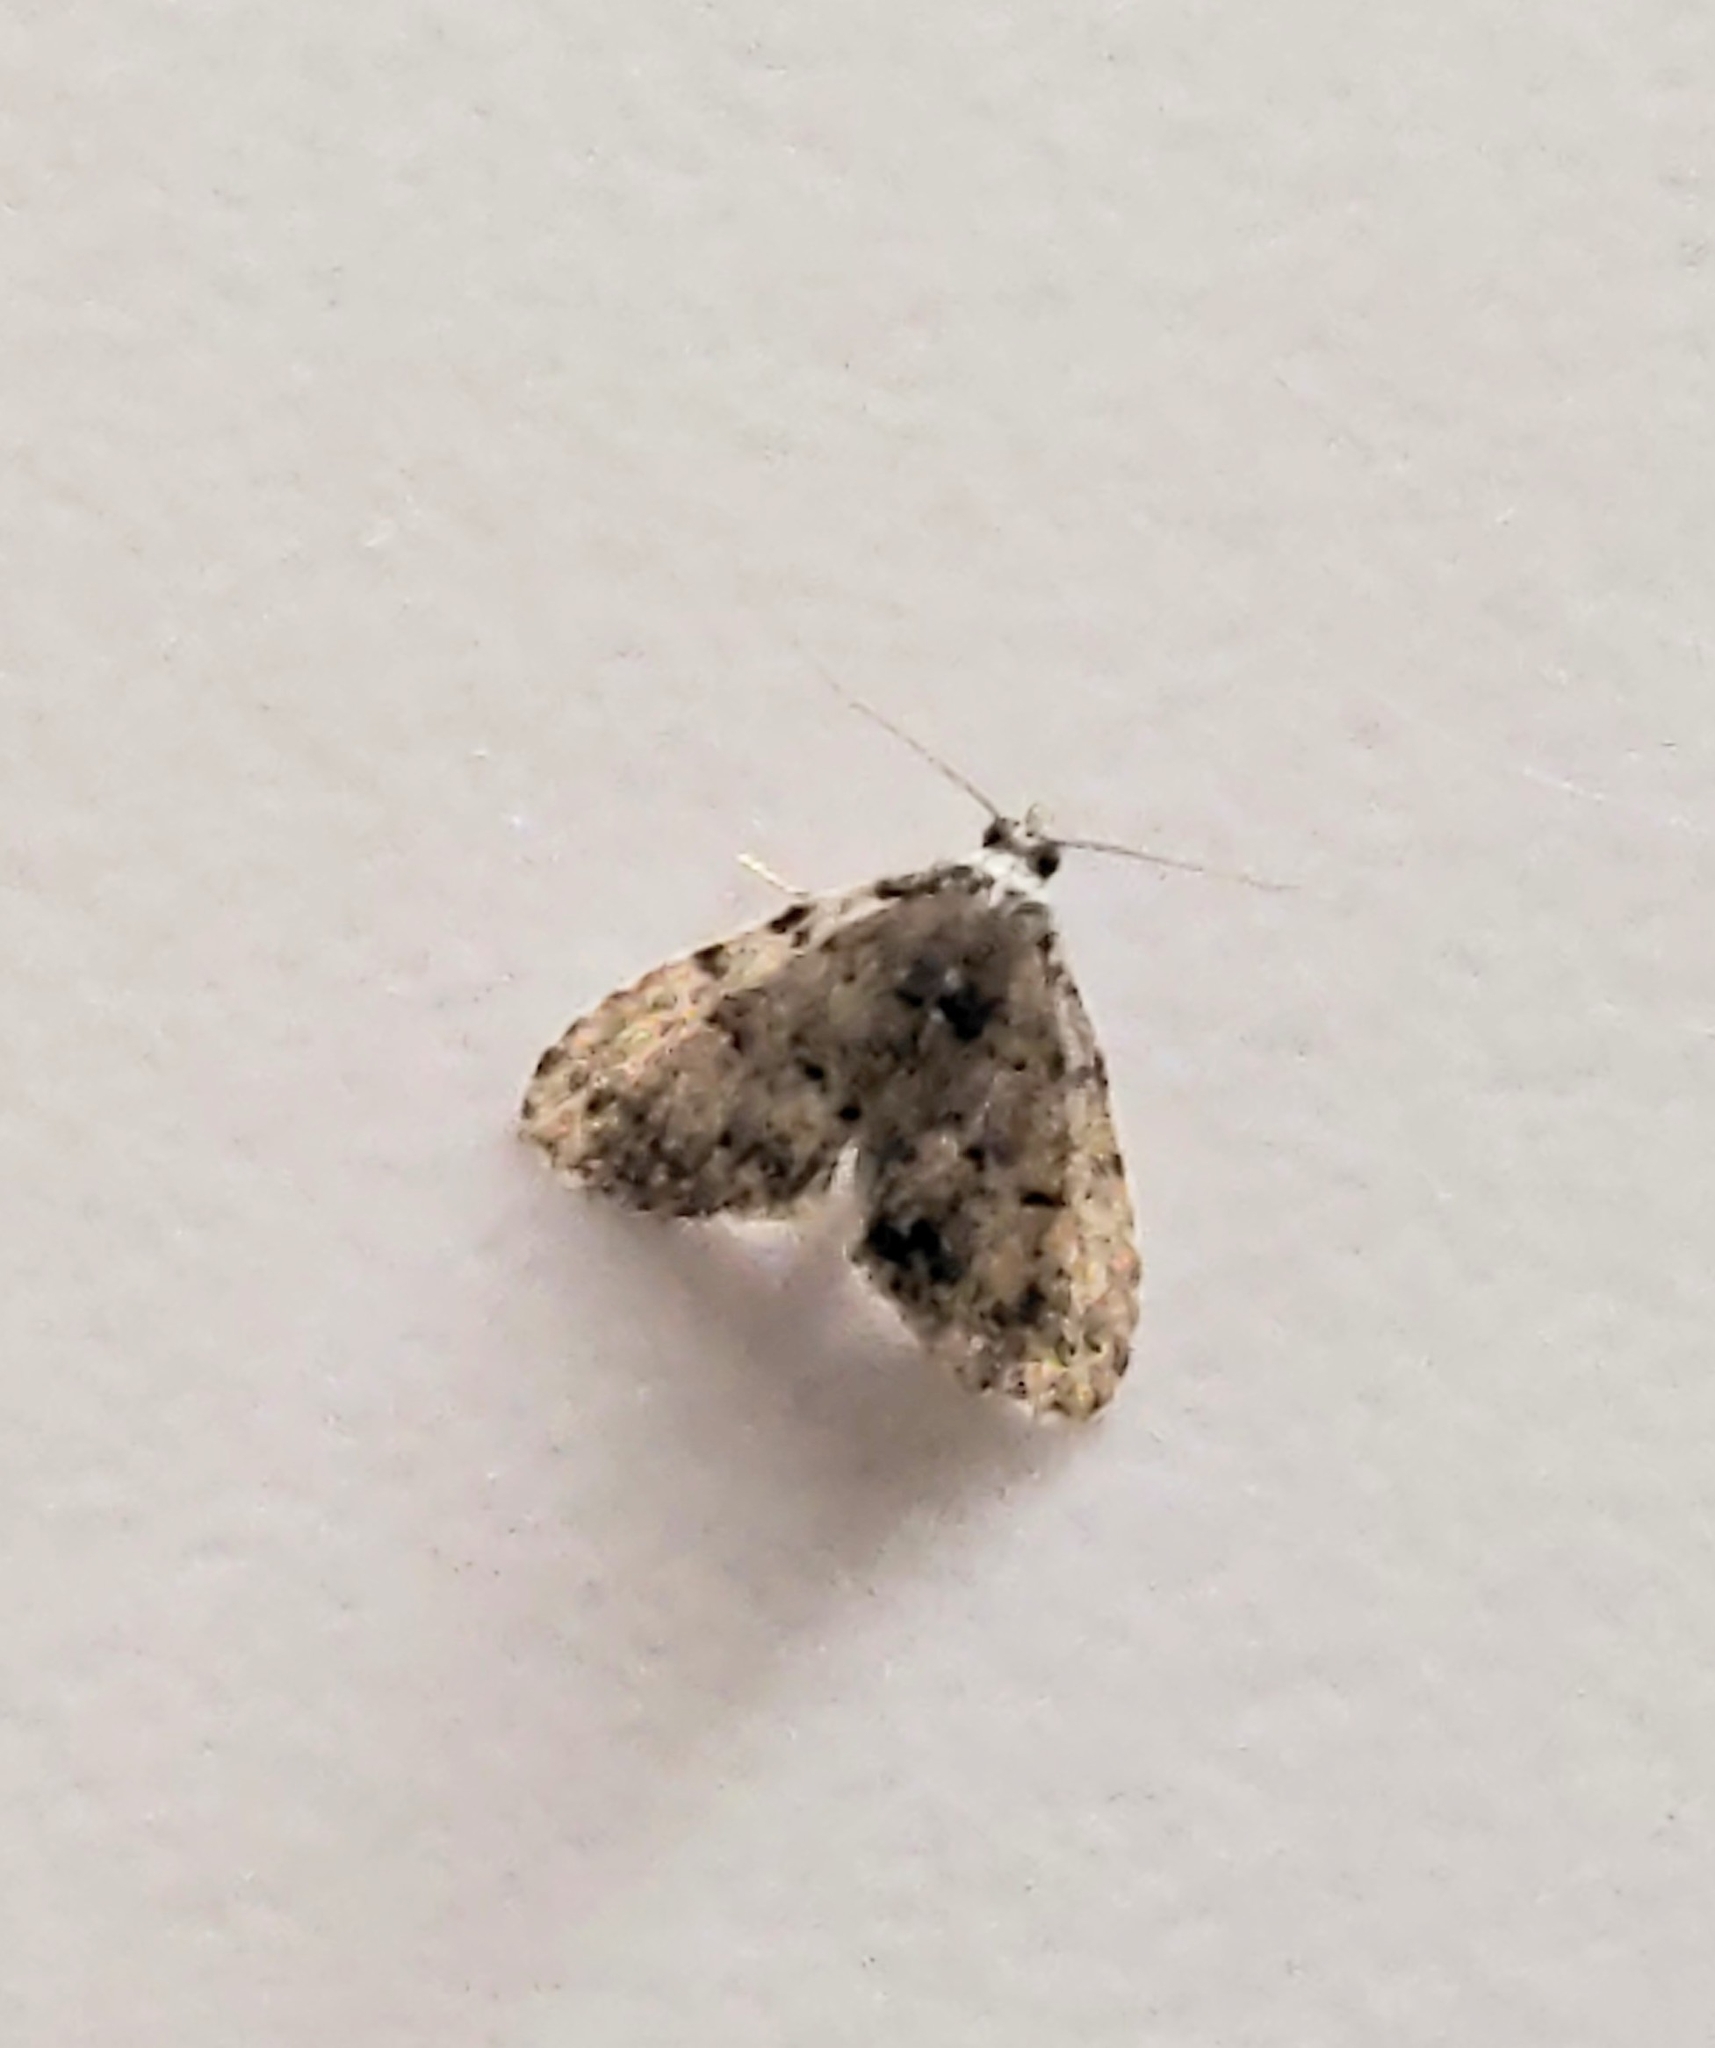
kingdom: Animalia
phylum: Arthropoda
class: Insecta
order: Lepidoptera
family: Erebidae
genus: Dyspyralis
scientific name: Dyspyralis puncticosta
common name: Spot-edged dyspyralis moth
